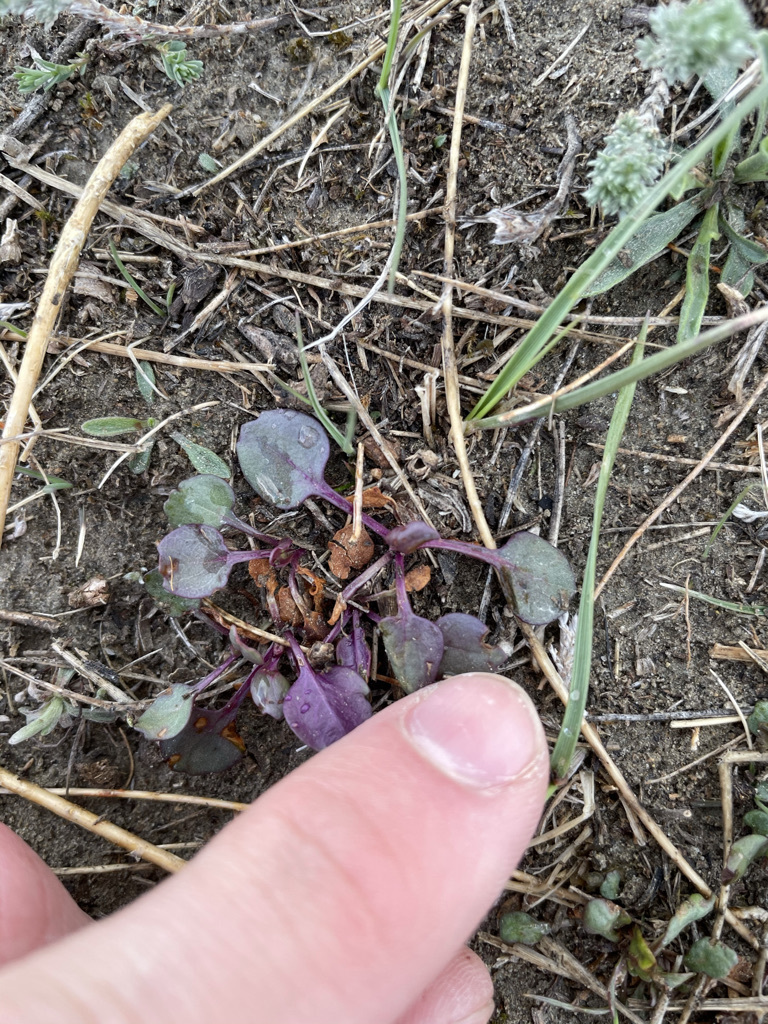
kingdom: Plantae
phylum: Tracheophyta
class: Magnoliopsida
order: Asterales
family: Asteraceae
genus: Packera
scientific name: Packera streptanthifolia
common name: Rocky mountain butterweed
